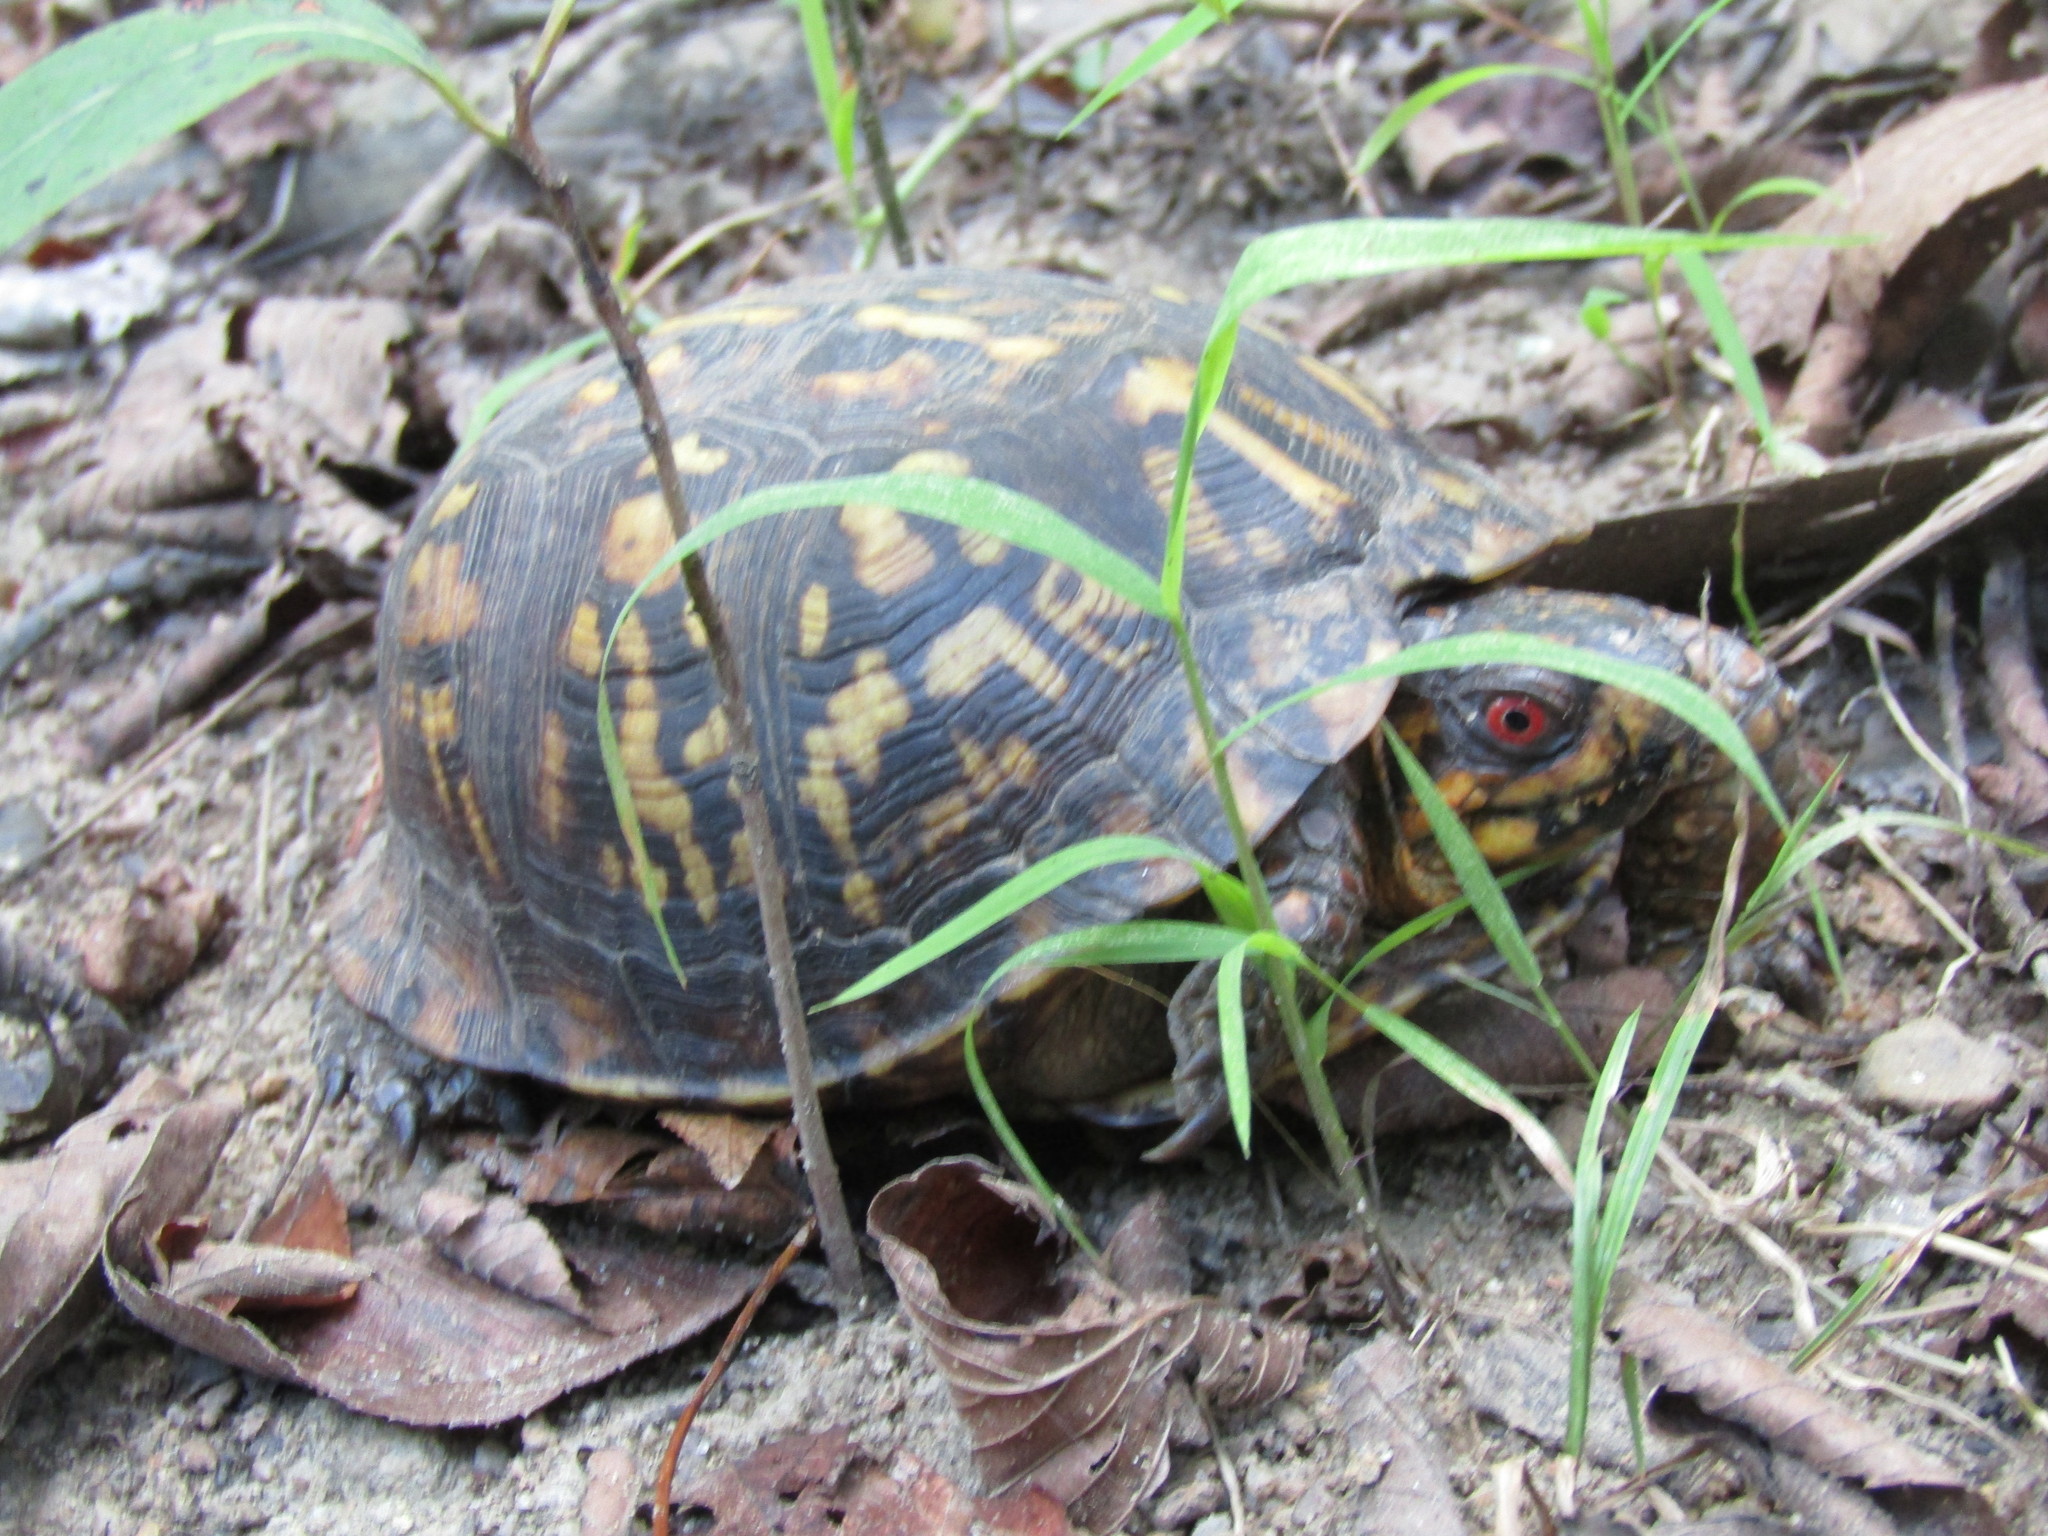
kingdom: Animalia
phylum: Chordata
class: Testudines
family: Emydidae
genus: Terrapene
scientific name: Terrapene carolina
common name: Common box turtle
